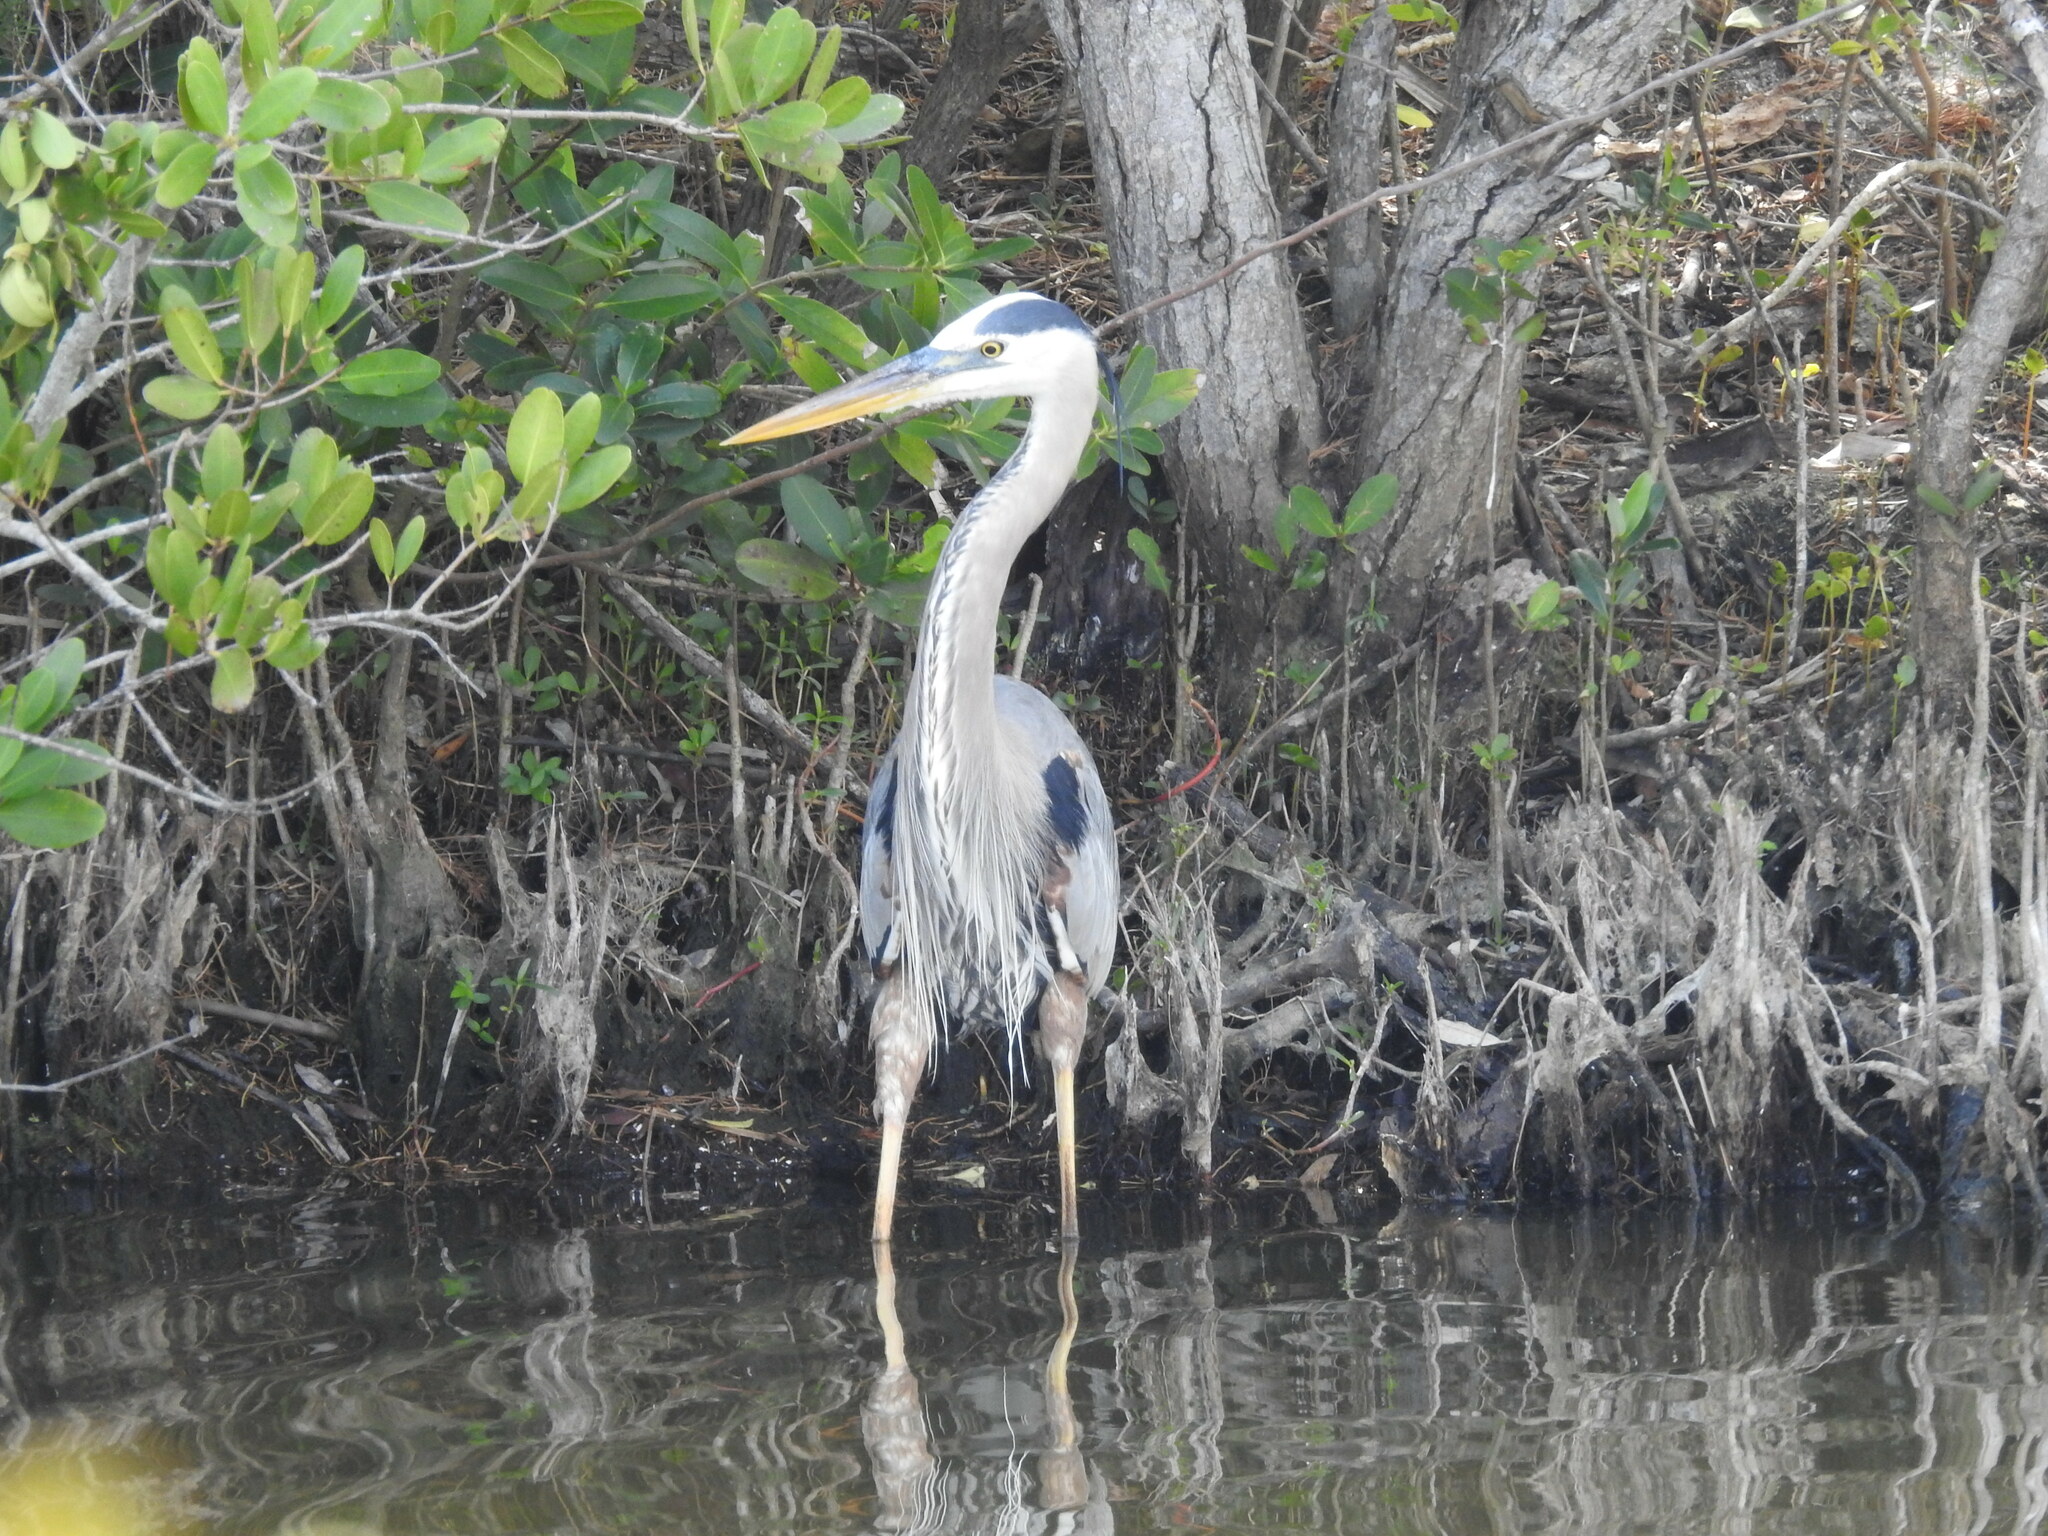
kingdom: Animalia
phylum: Chordata
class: Aves
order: Pelecaniformes
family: Ardeidae
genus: Ardea
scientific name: Ardea herodias
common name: Great blue heron
